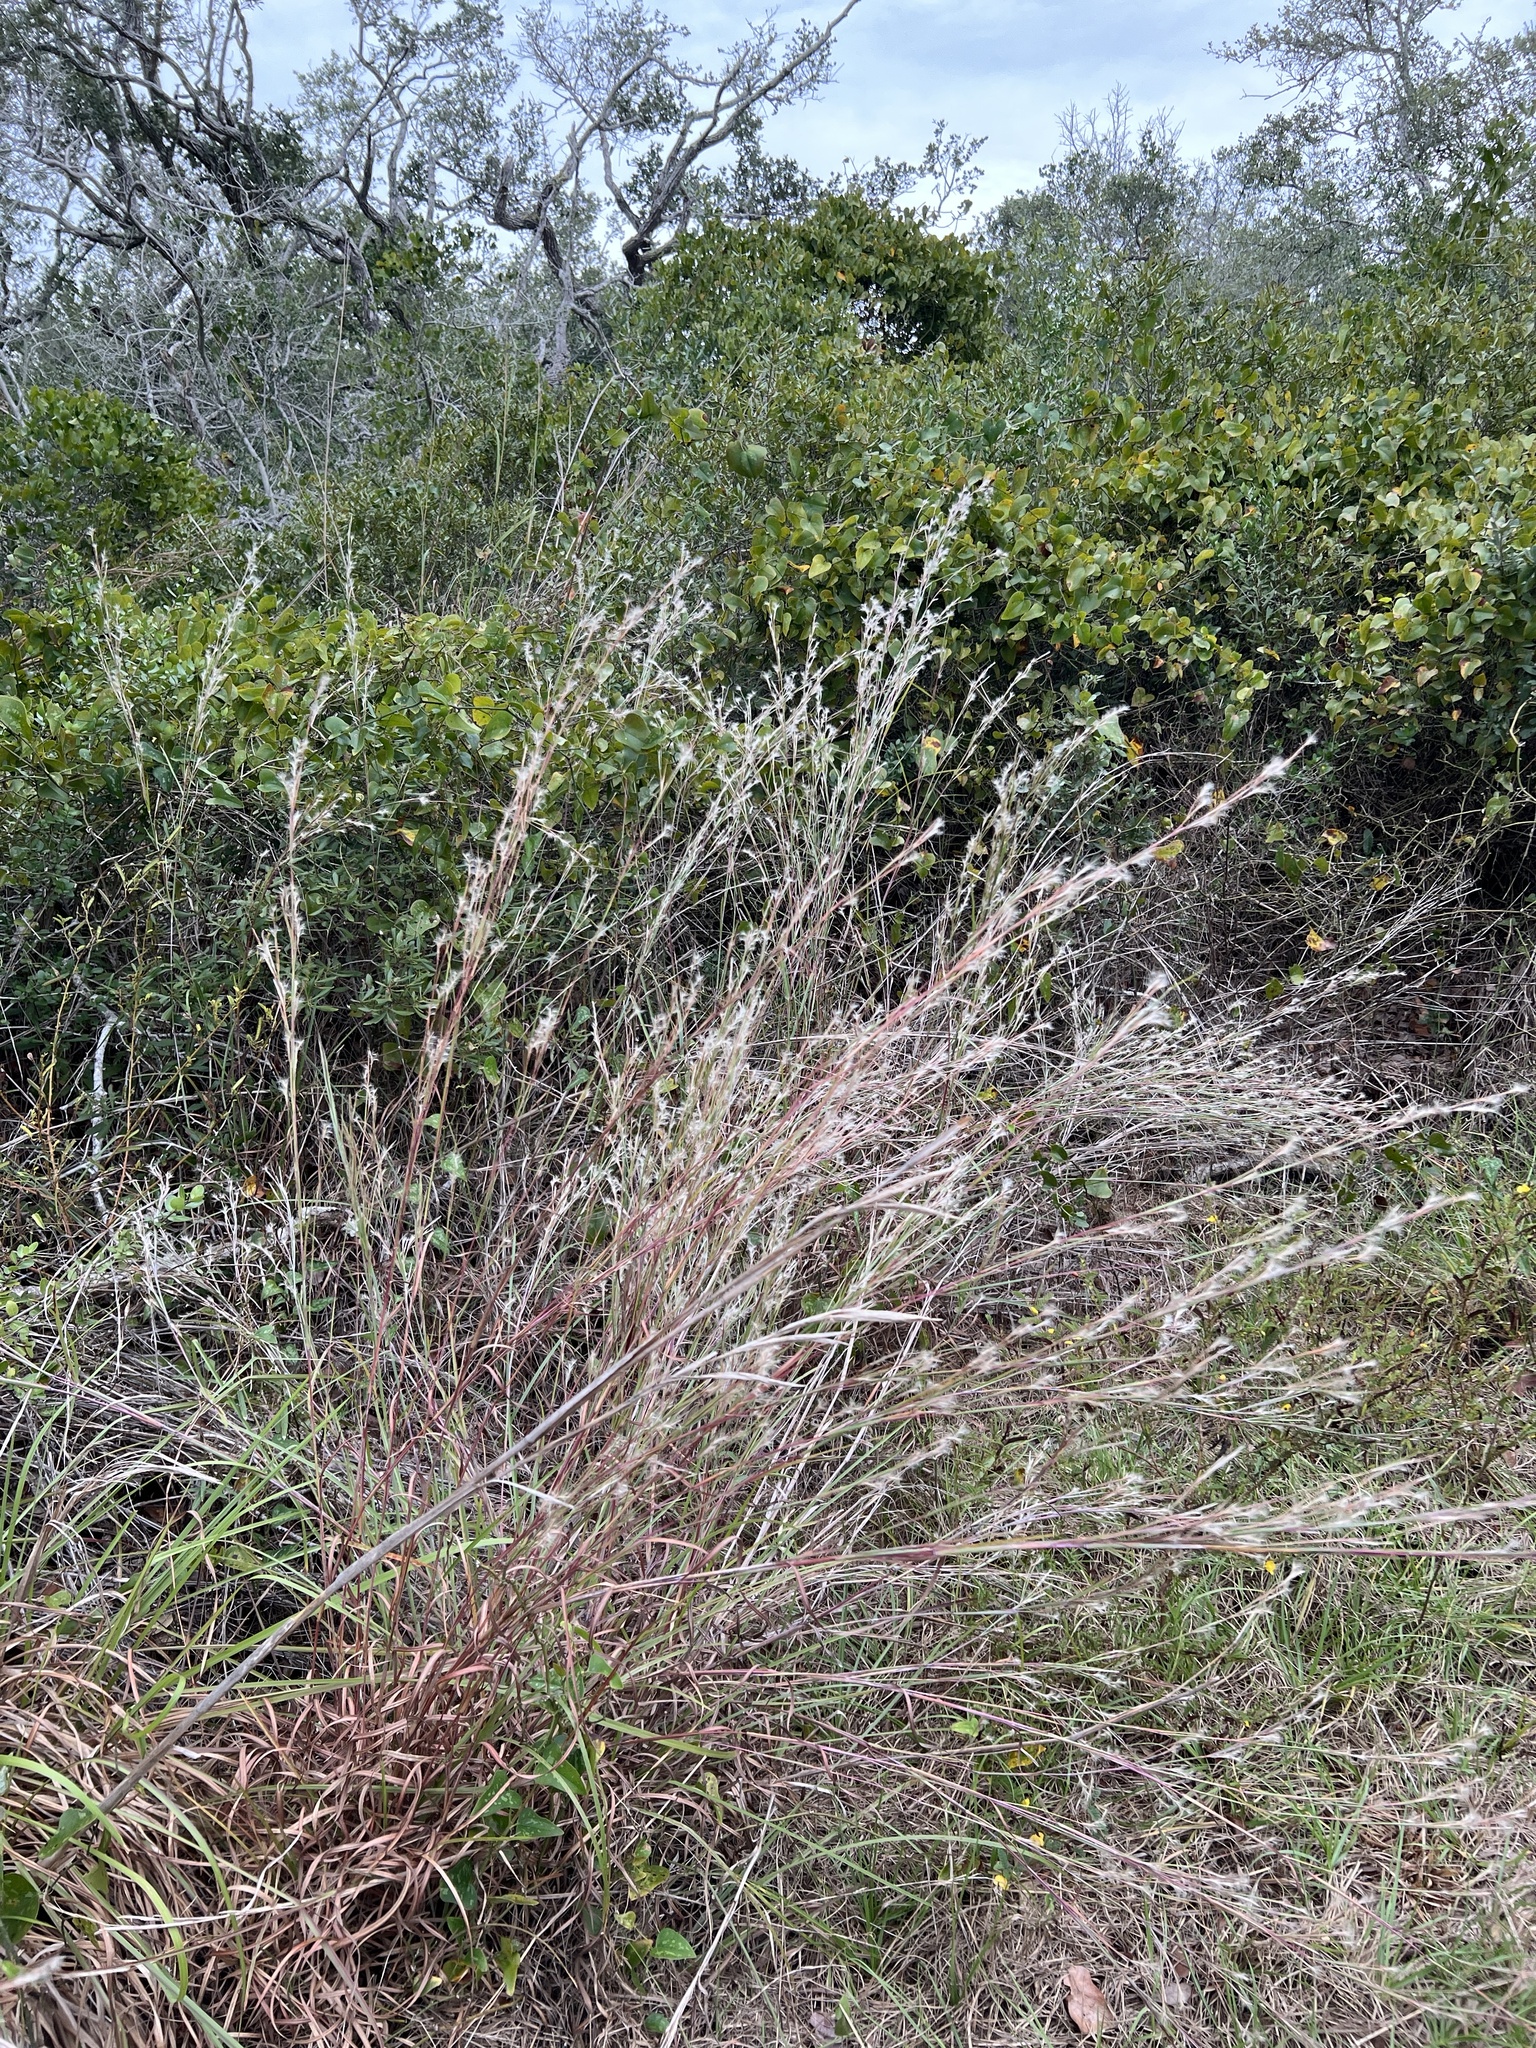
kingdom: Plantae
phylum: Tracheophyta
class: Liliopsida
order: Poales
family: Poaceae
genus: Schizachyrium
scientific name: Schizachyrium scoparium
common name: Little bluestem
